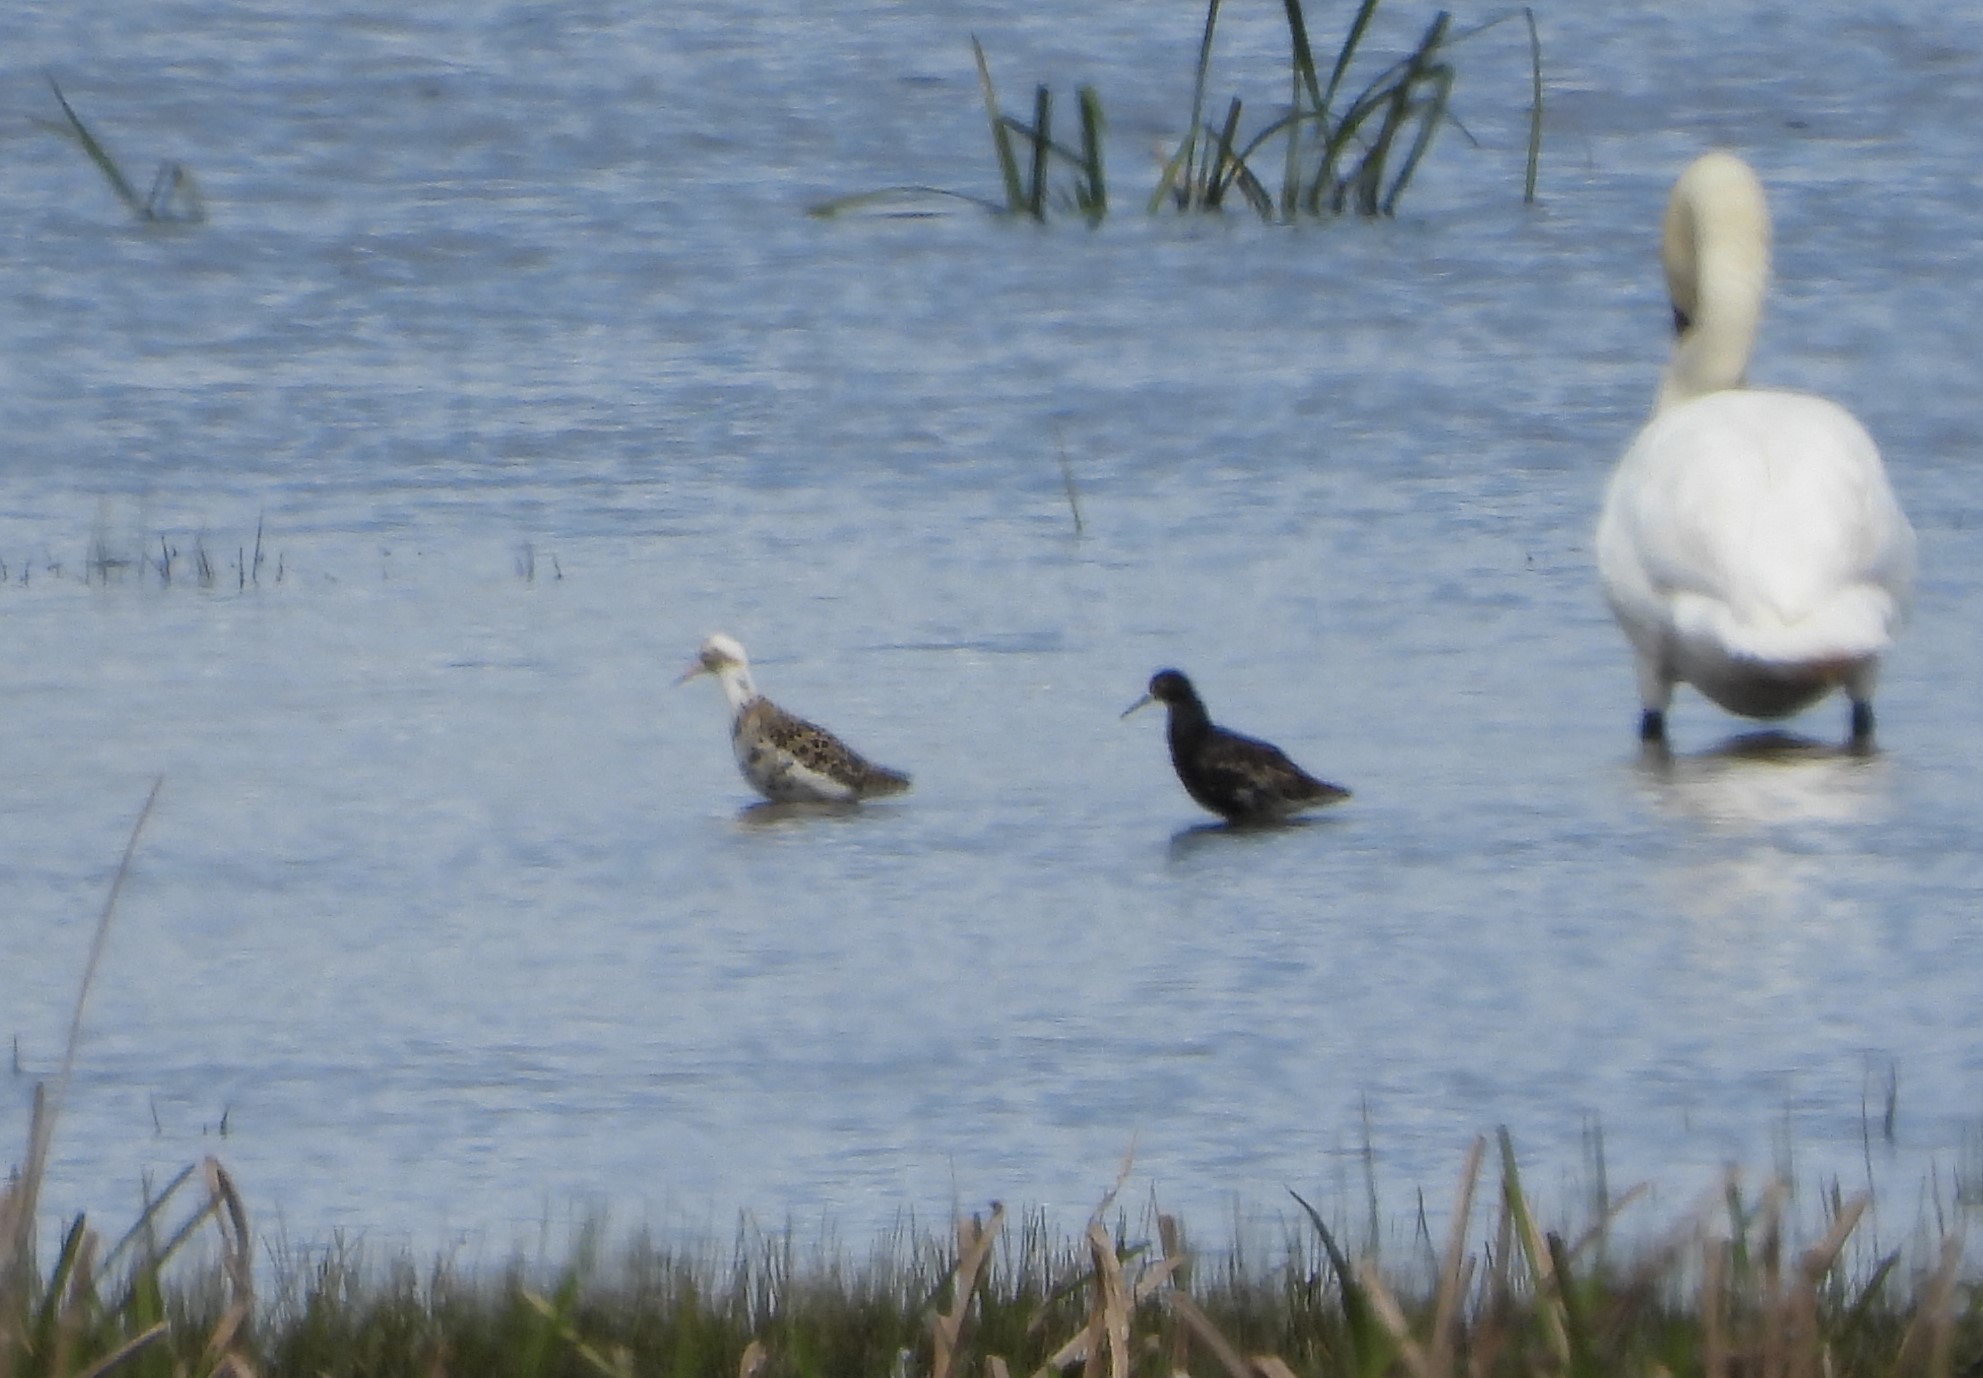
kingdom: Animalia
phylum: Chordata
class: Aves
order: Charadriiformes
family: Scolopacidae
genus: Calidris
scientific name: Calidris pugnax
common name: Ruff
